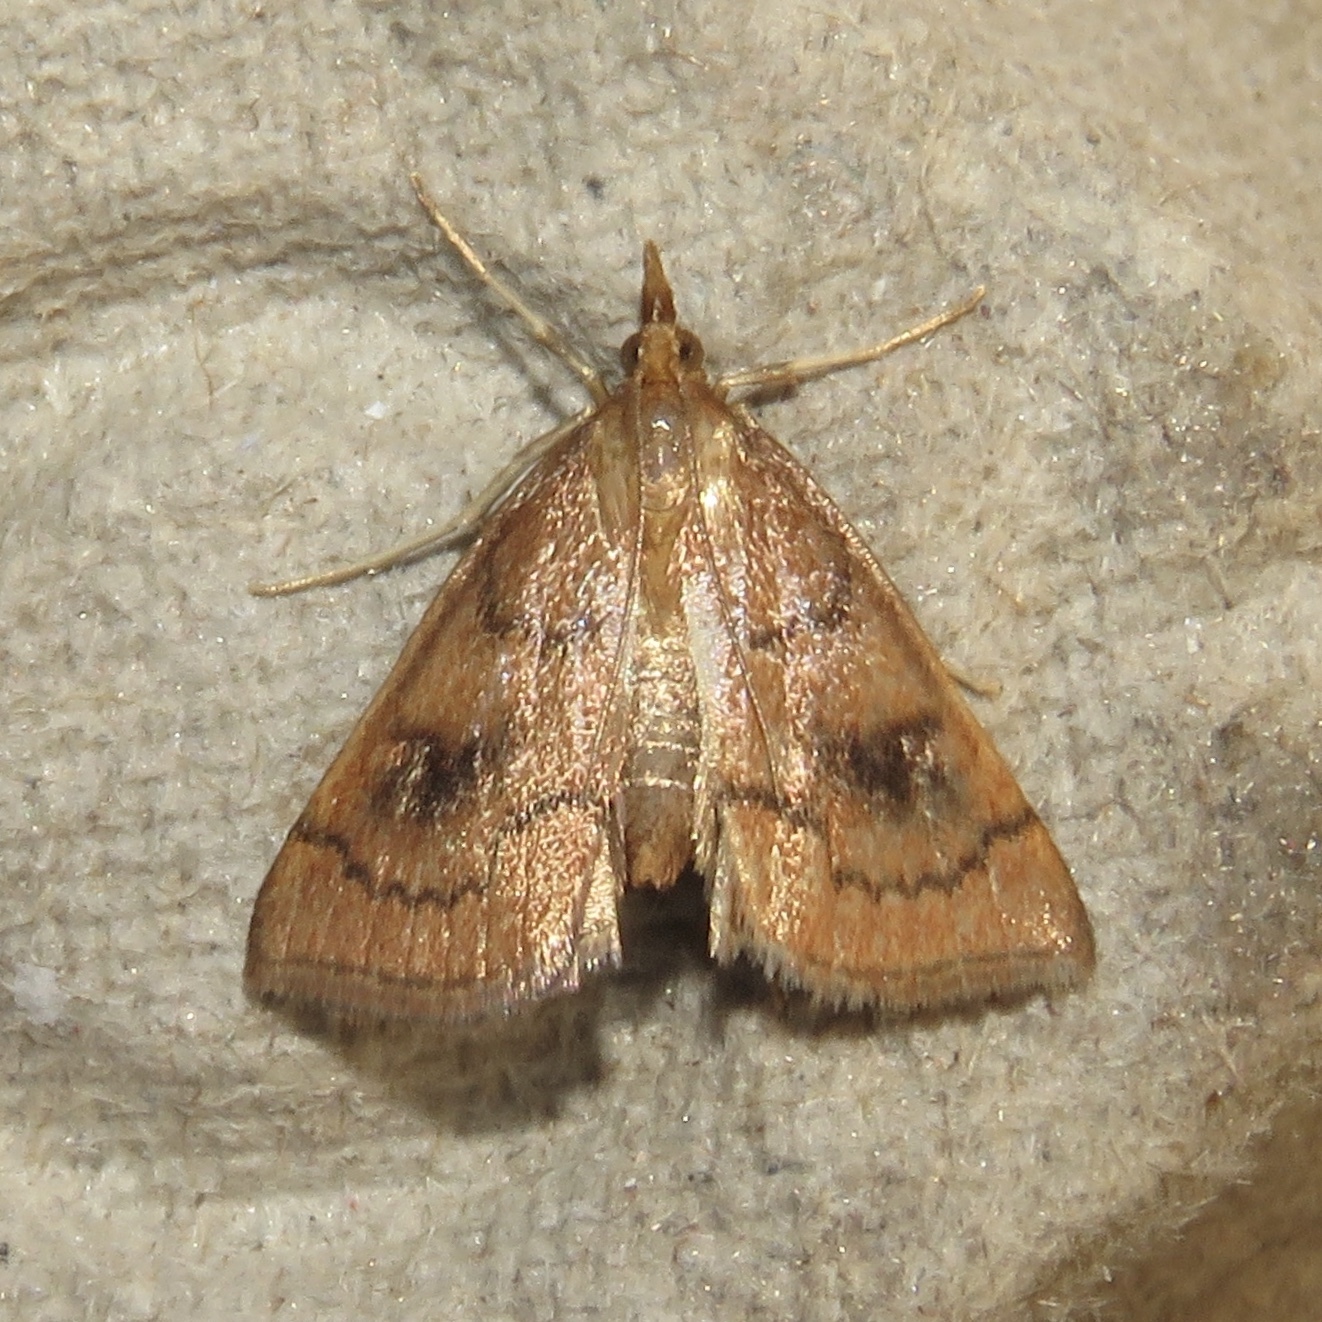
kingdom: Animalia
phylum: Arthropoda
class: Insecta
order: Lepidoptera
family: Crambidae
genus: Fumibotys
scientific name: Fumibotys fumalis
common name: Mint root borer moth
